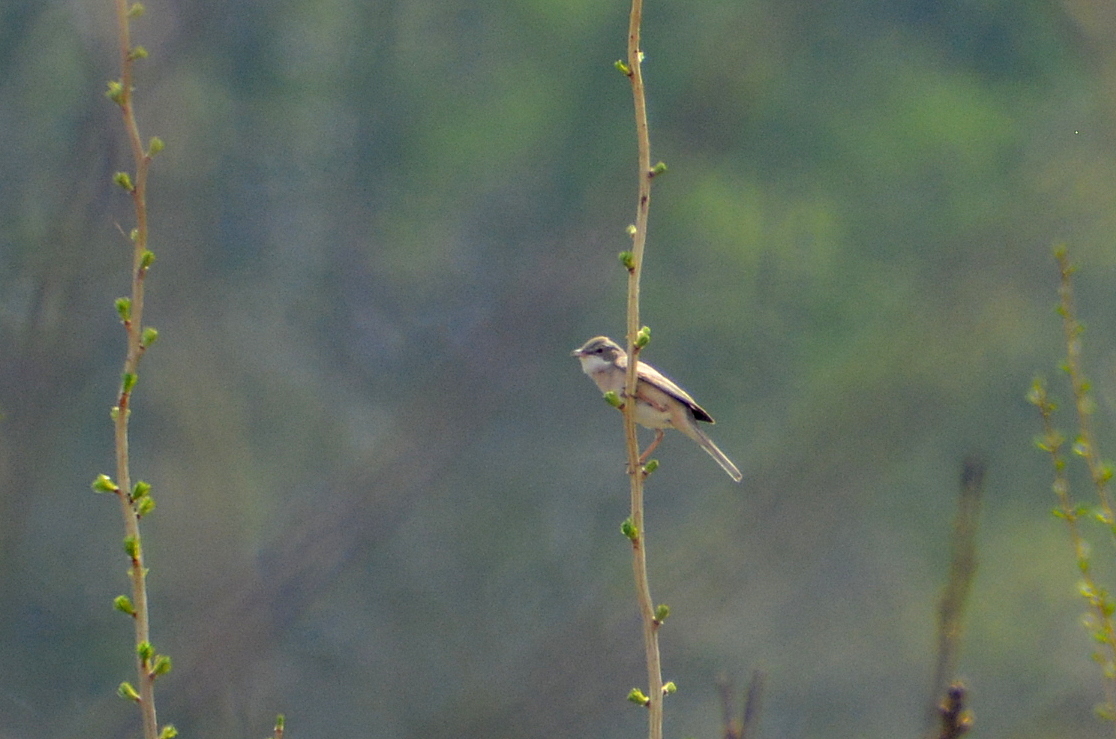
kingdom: Animalia
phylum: Chordata
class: Aves
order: Passeriformes
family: Sylviidae
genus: Sylvia
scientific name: Sylvia communis
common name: Common whitethroat
